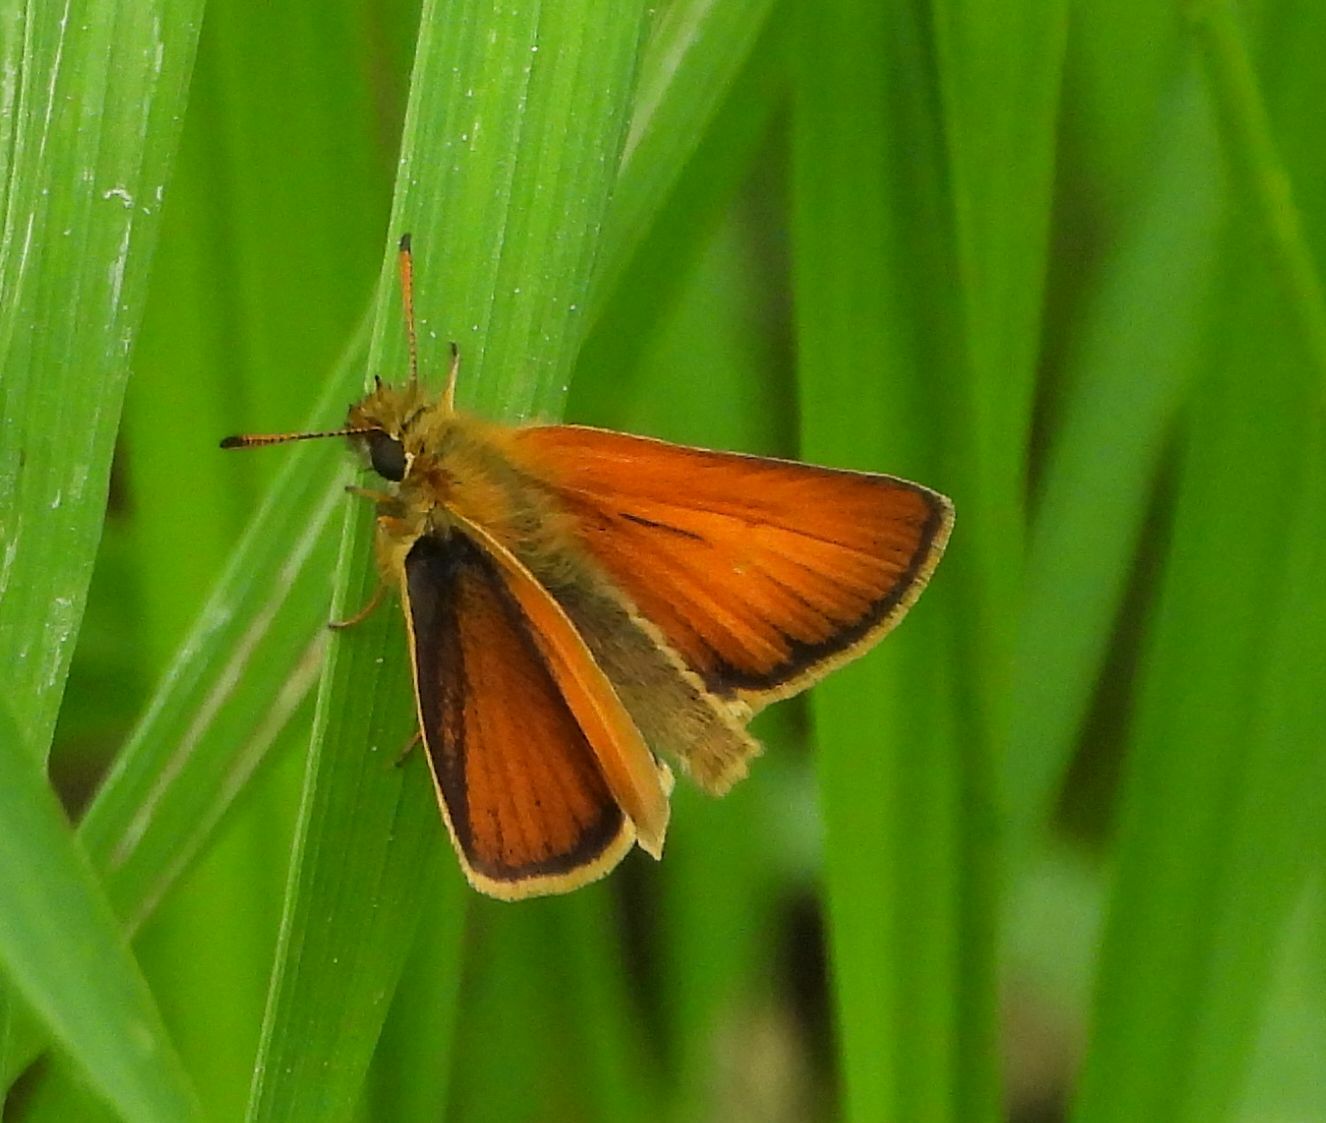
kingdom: Animalia
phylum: Arthropoda
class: Insecta
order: Lepidoptera
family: Hesperiidae
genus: Thymelicus
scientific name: Thymelicus lineola
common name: Essex skipper
